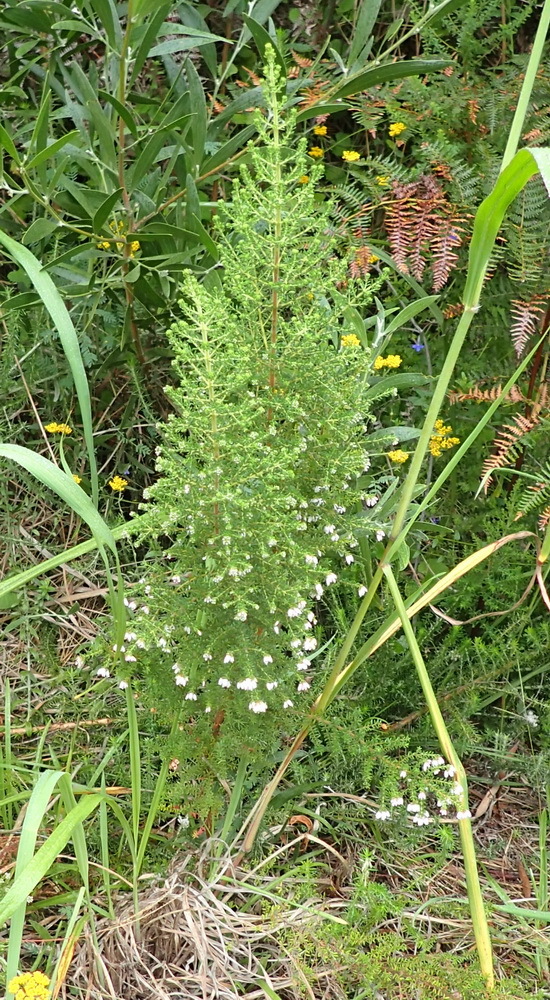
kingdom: Plantae
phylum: Tracheophyta
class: Magnoliopsida
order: Ericales
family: Ericaceae
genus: Erica
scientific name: Erica scabriuscula
